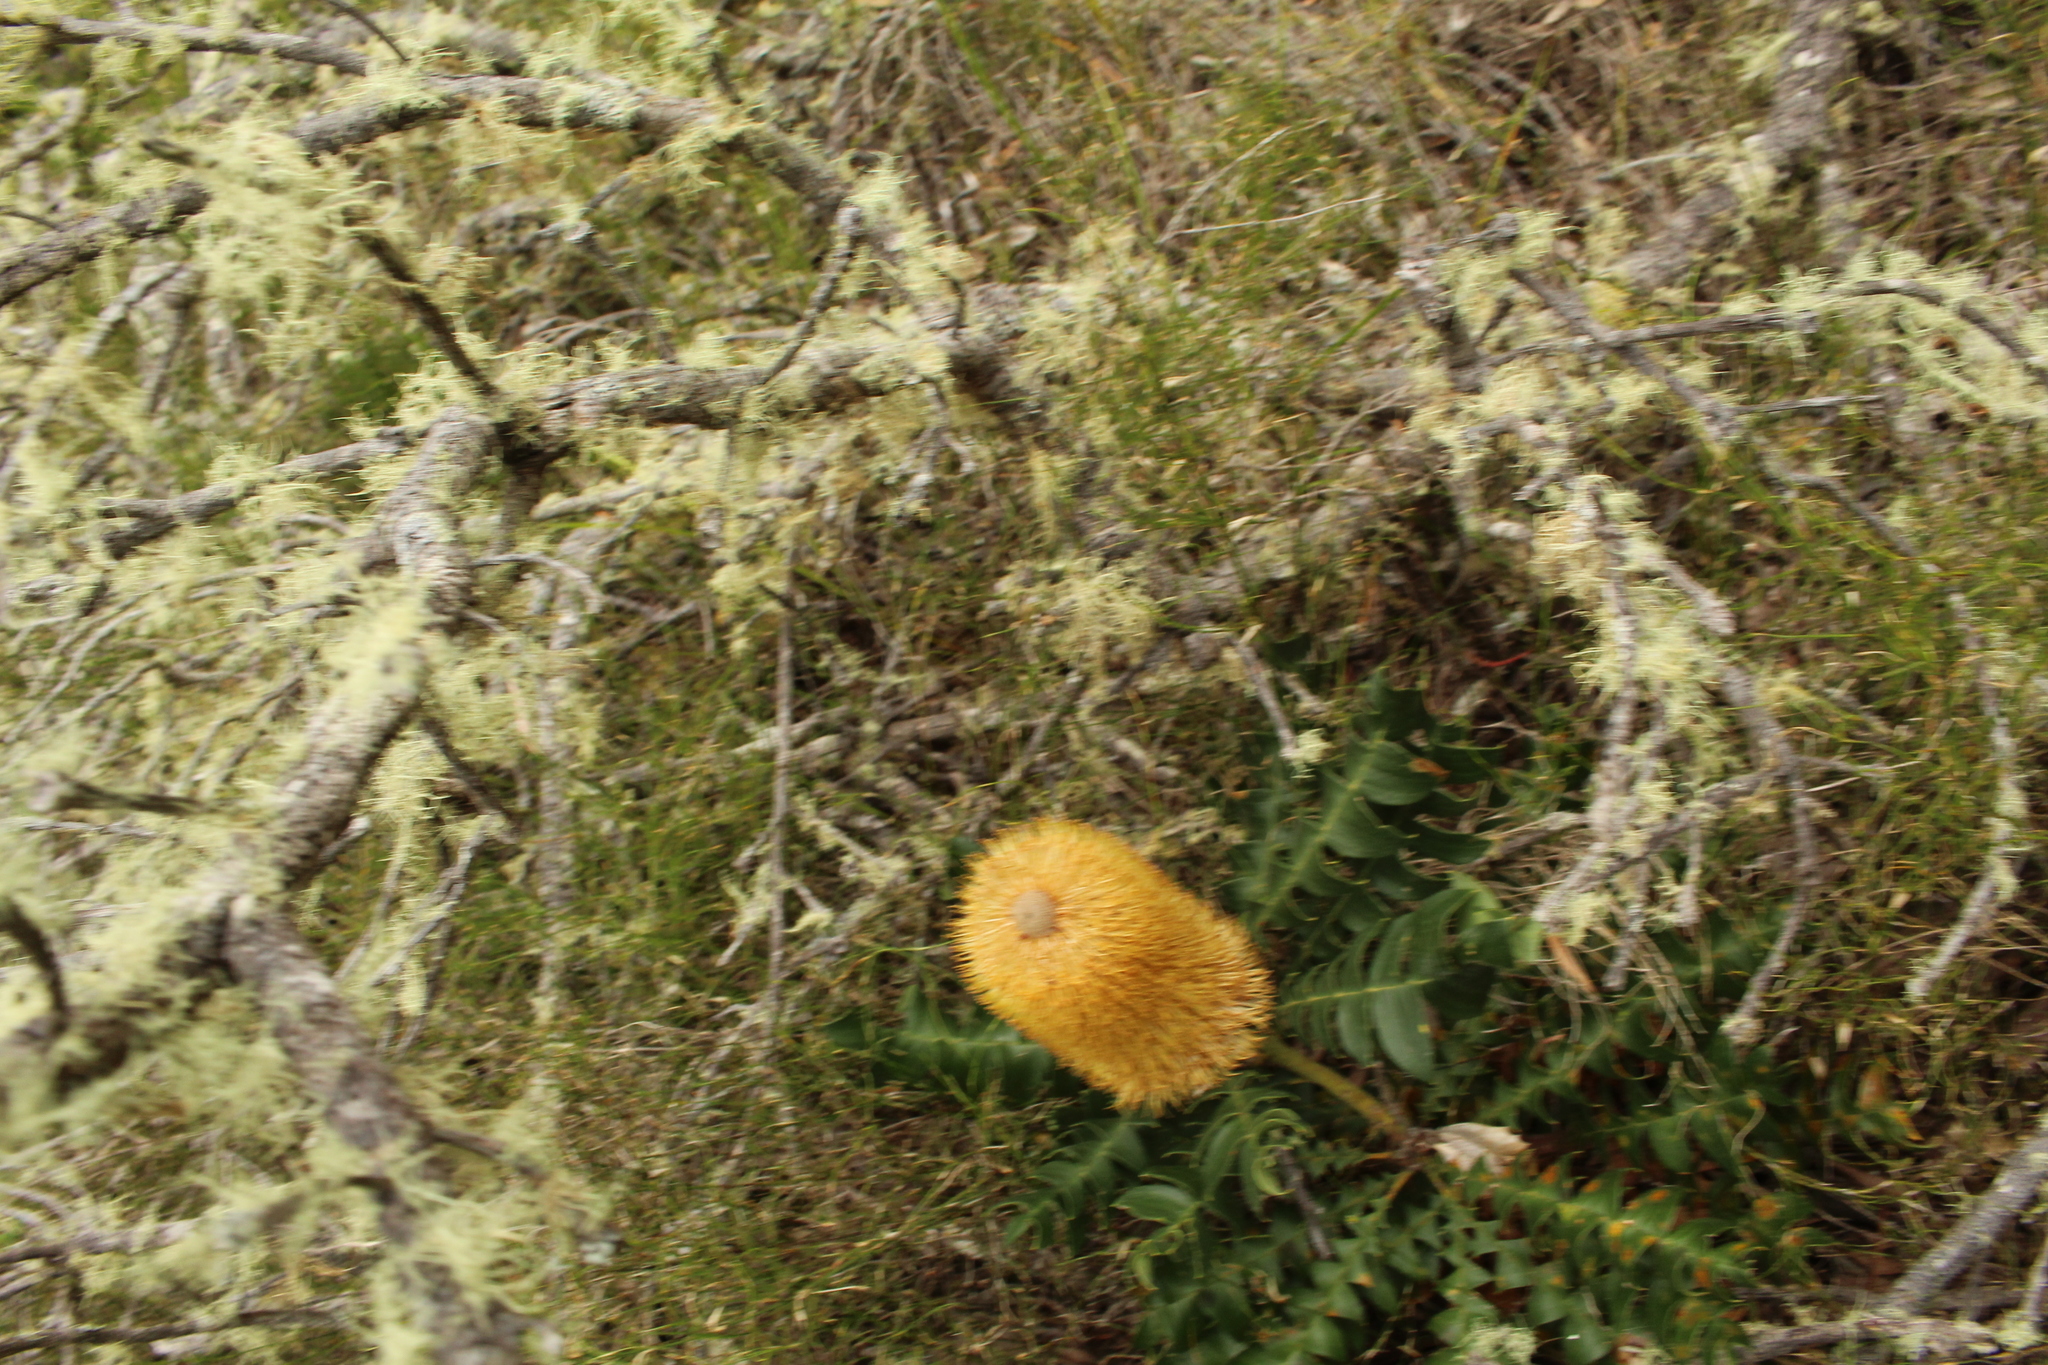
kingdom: Plantae
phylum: Tracheophyta
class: Magnoliopsida
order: Proteales
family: Proteaceae
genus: Banksia
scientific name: Banksia grandis
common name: Giant banksia
